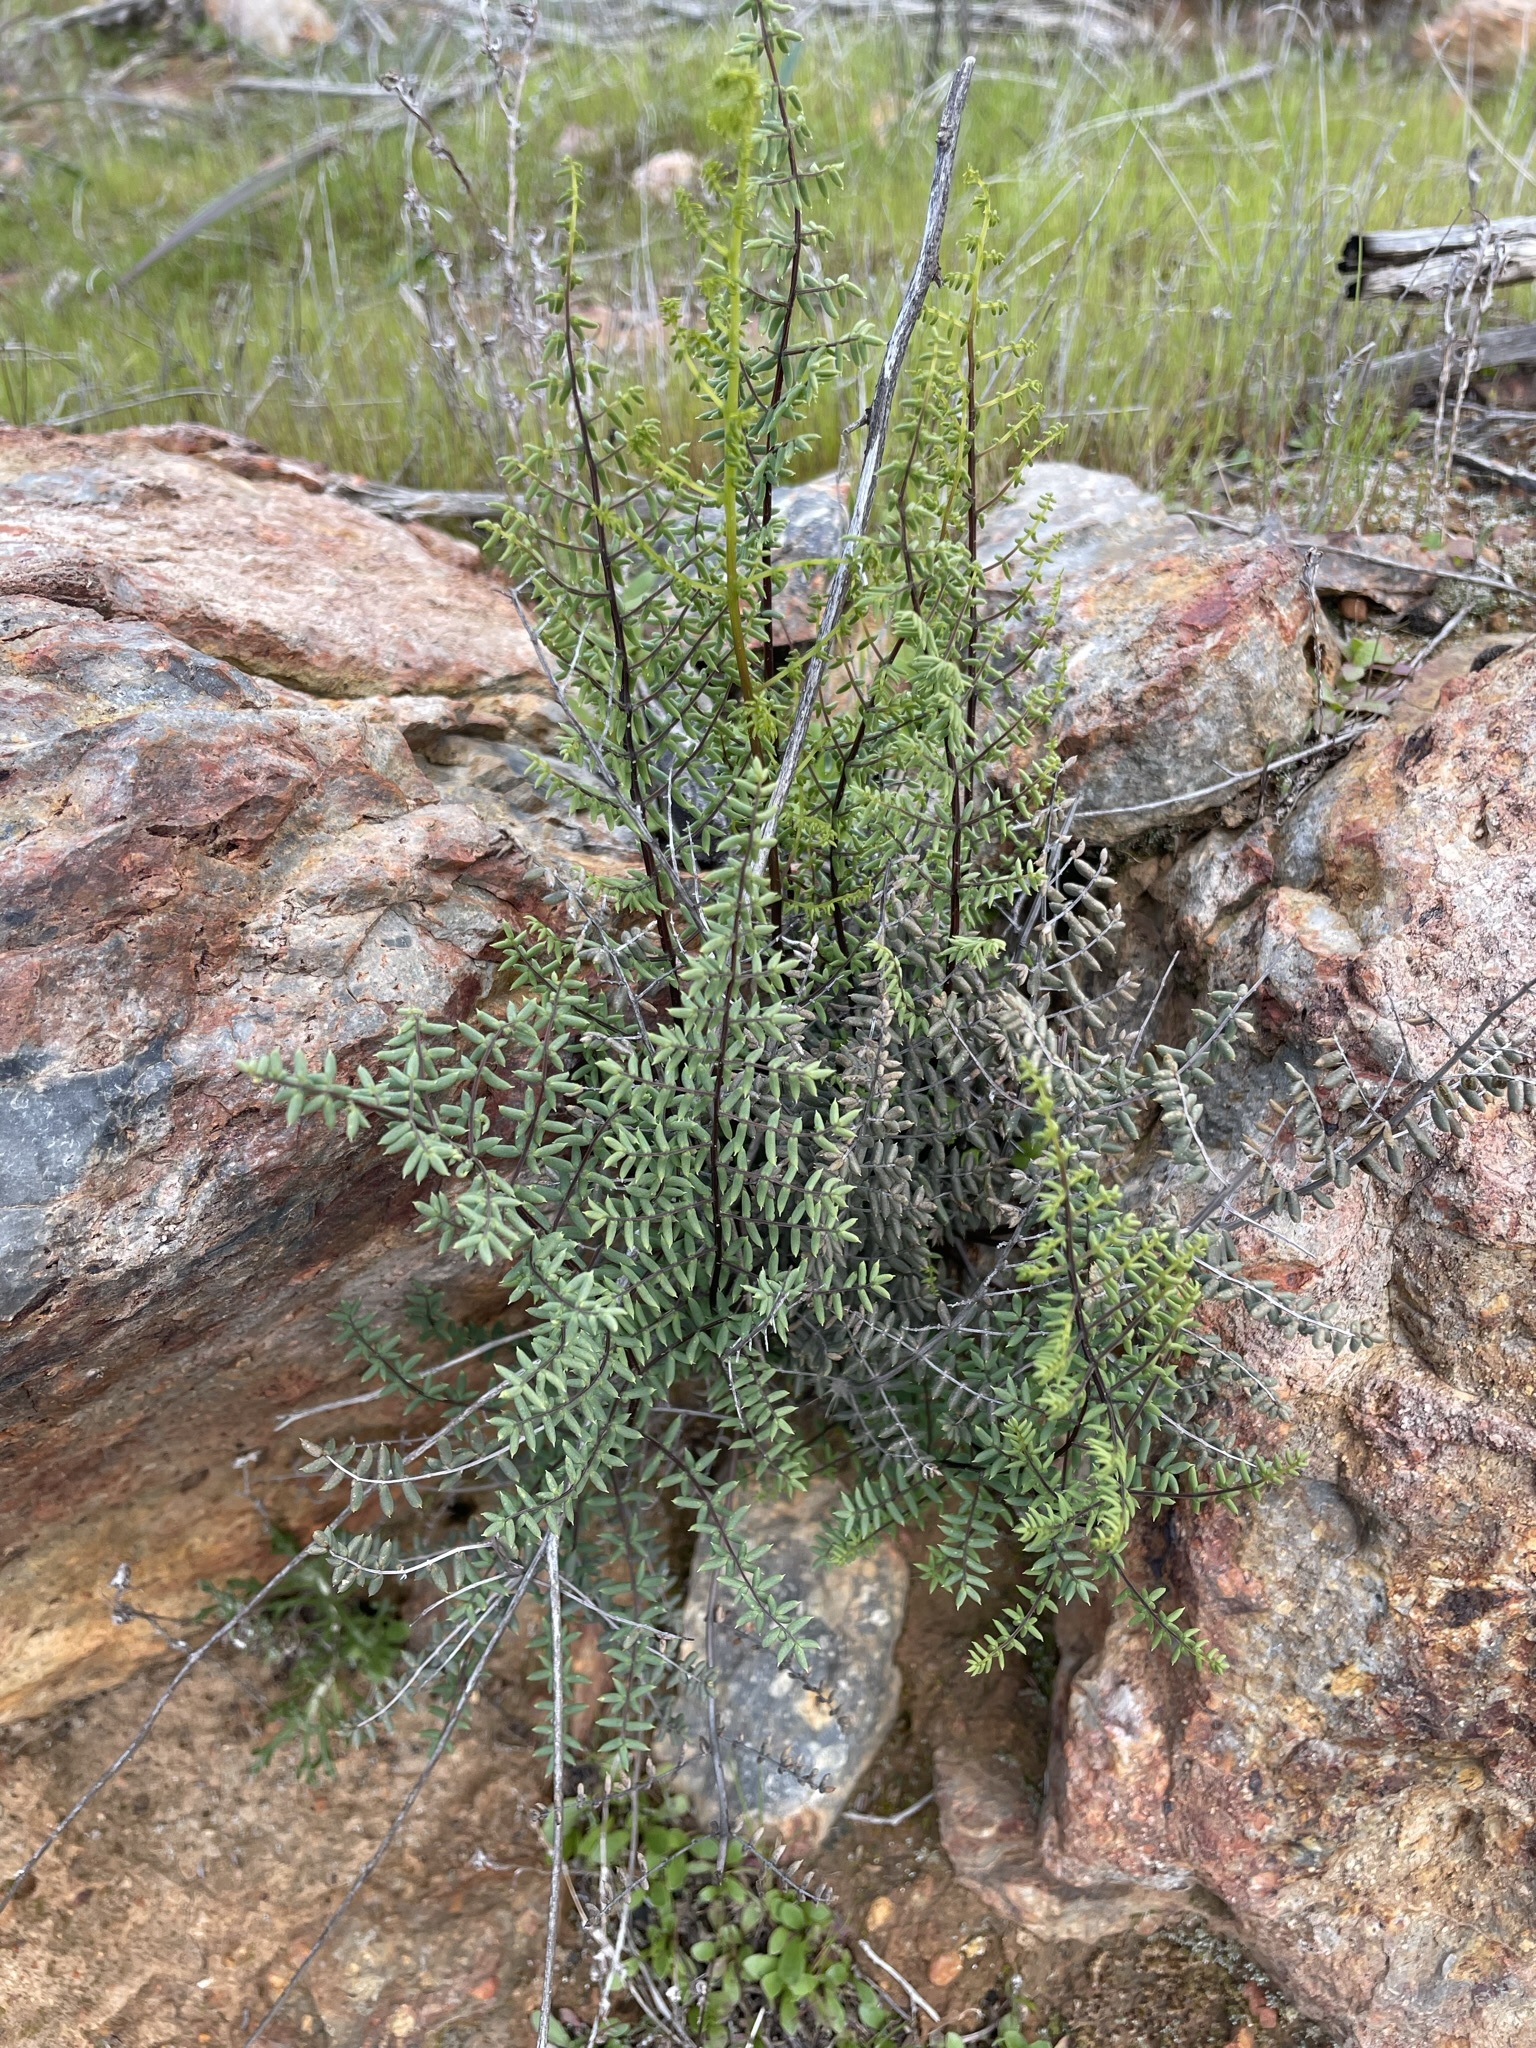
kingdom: Plantae
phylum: Tracheophyta
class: Polypodiopsida
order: Polypodiales
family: Pteridaceae
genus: Pellaea
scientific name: Pellaea mucronata
